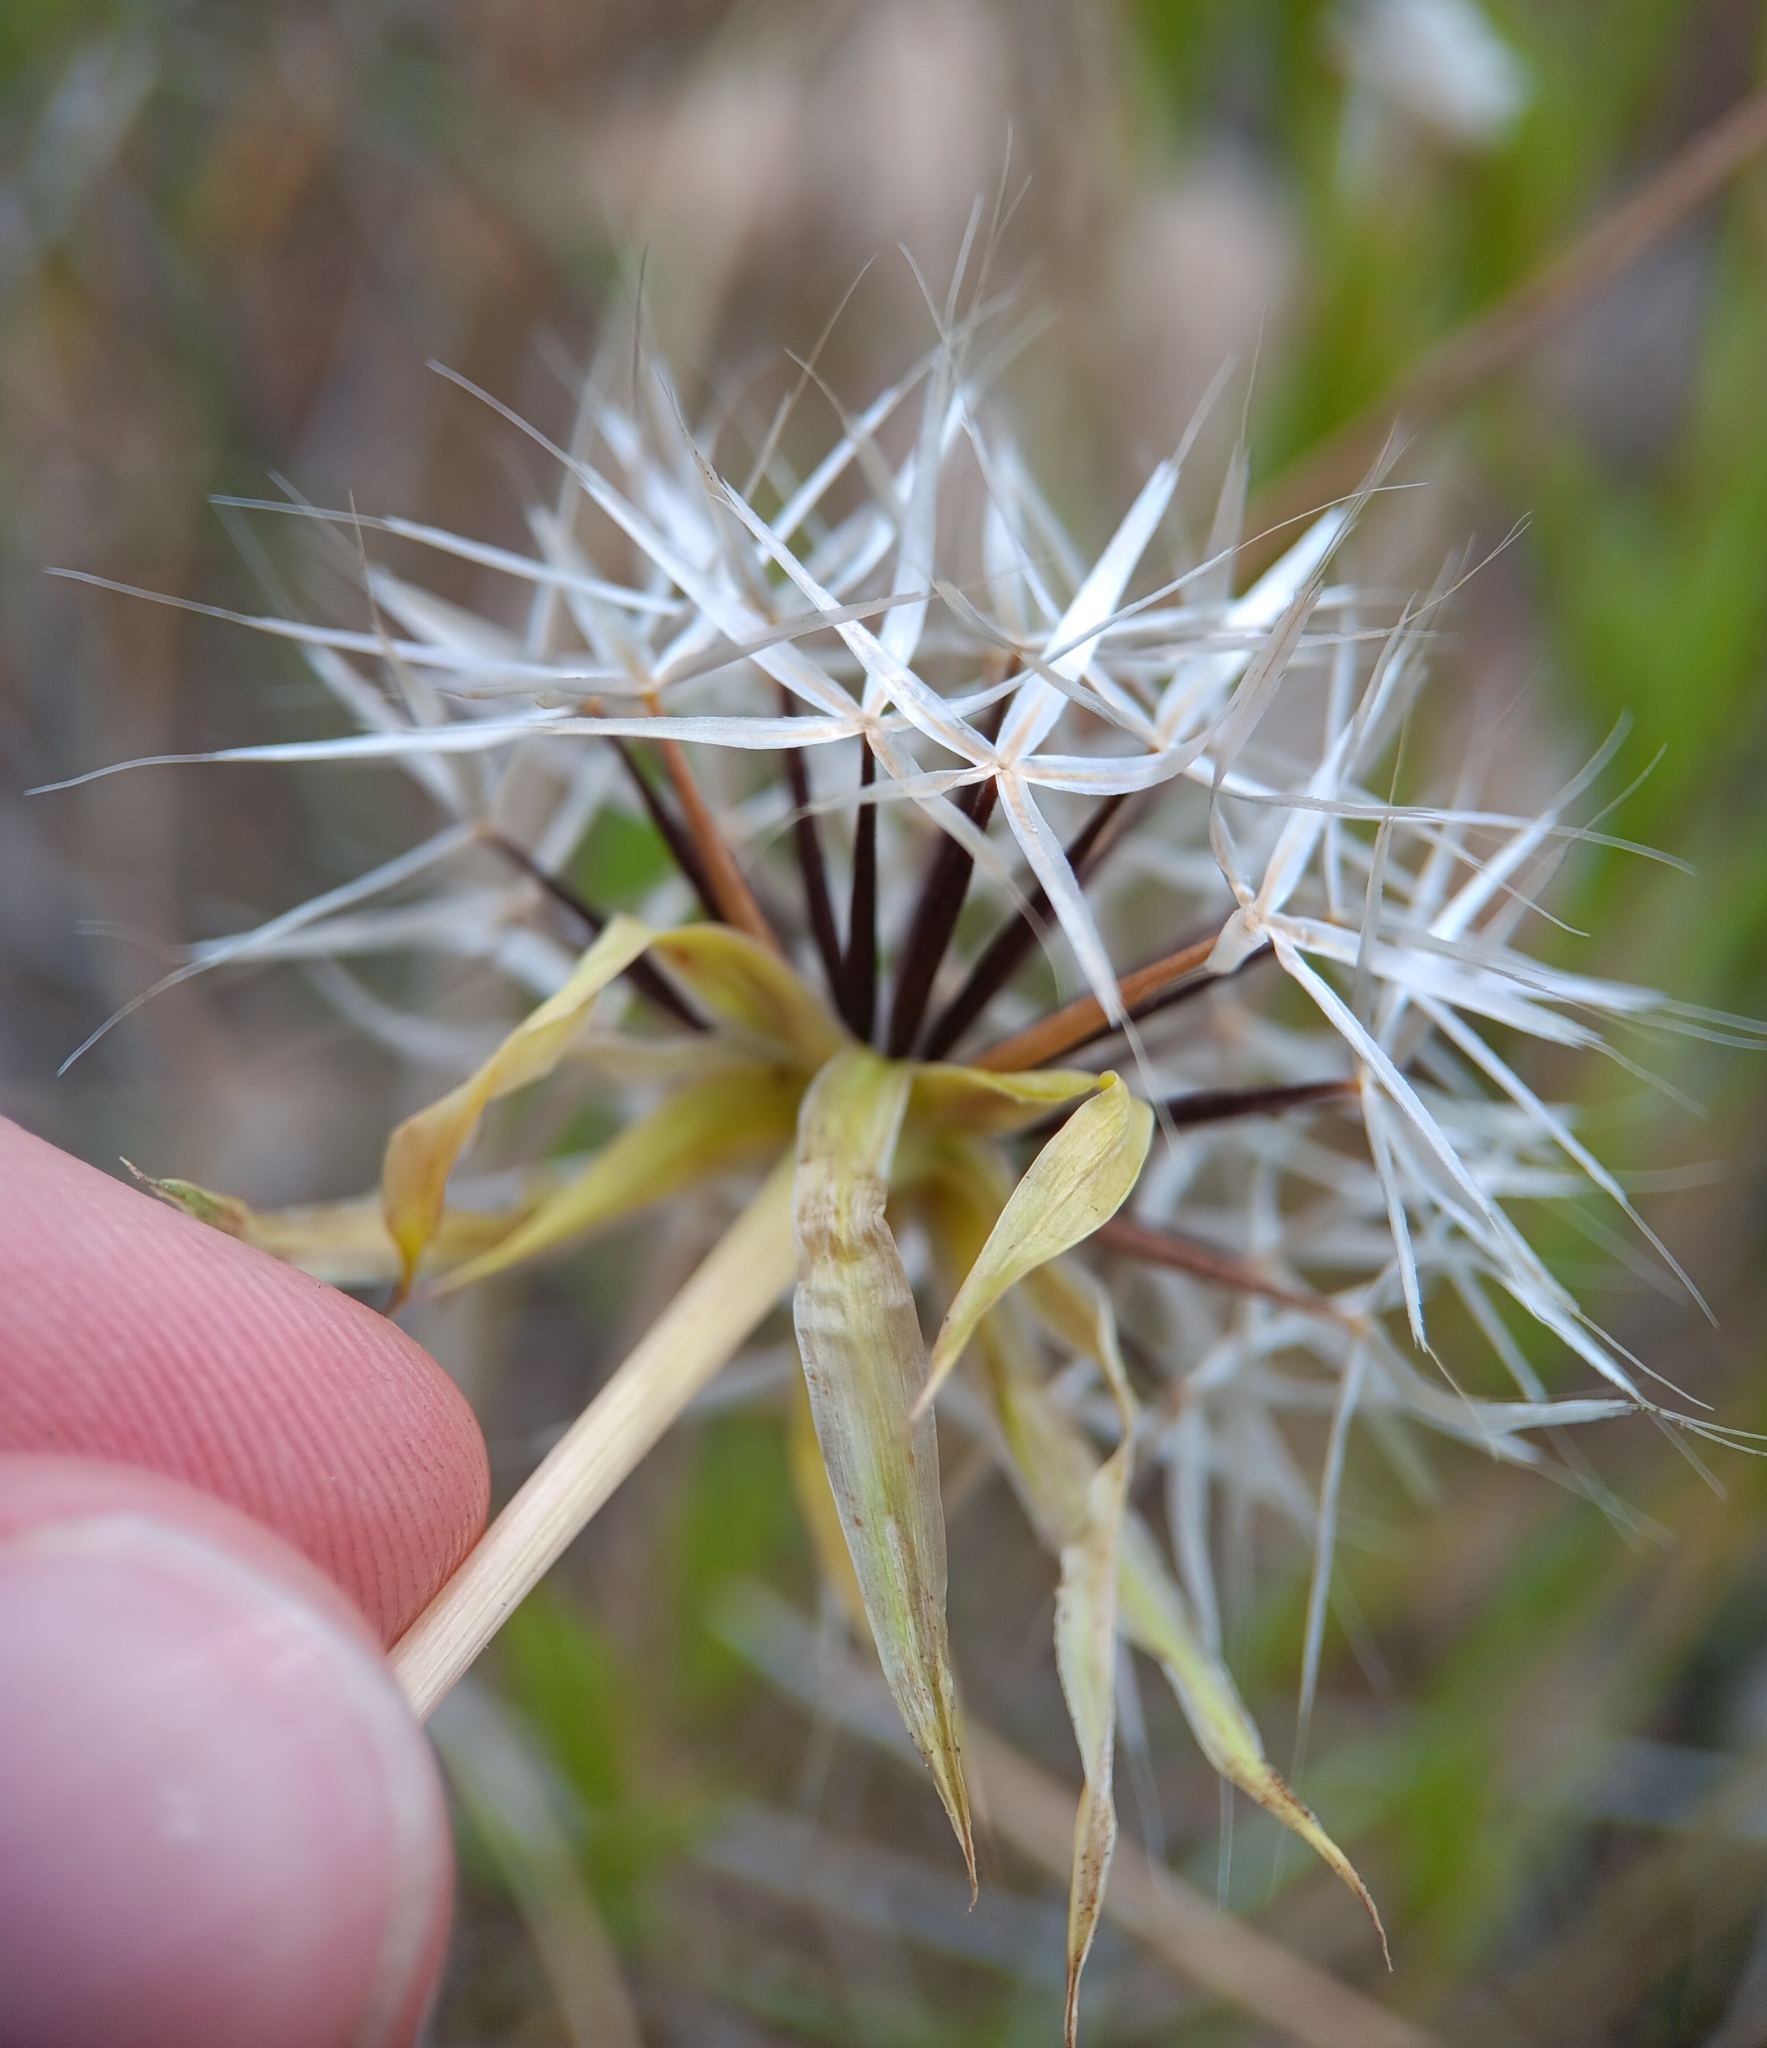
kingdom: Plantae
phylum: Tracheophyta
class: Magnoliopsida
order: Asterales
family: Asteraceae
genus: Microseris
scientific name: Microseris lindleyi
